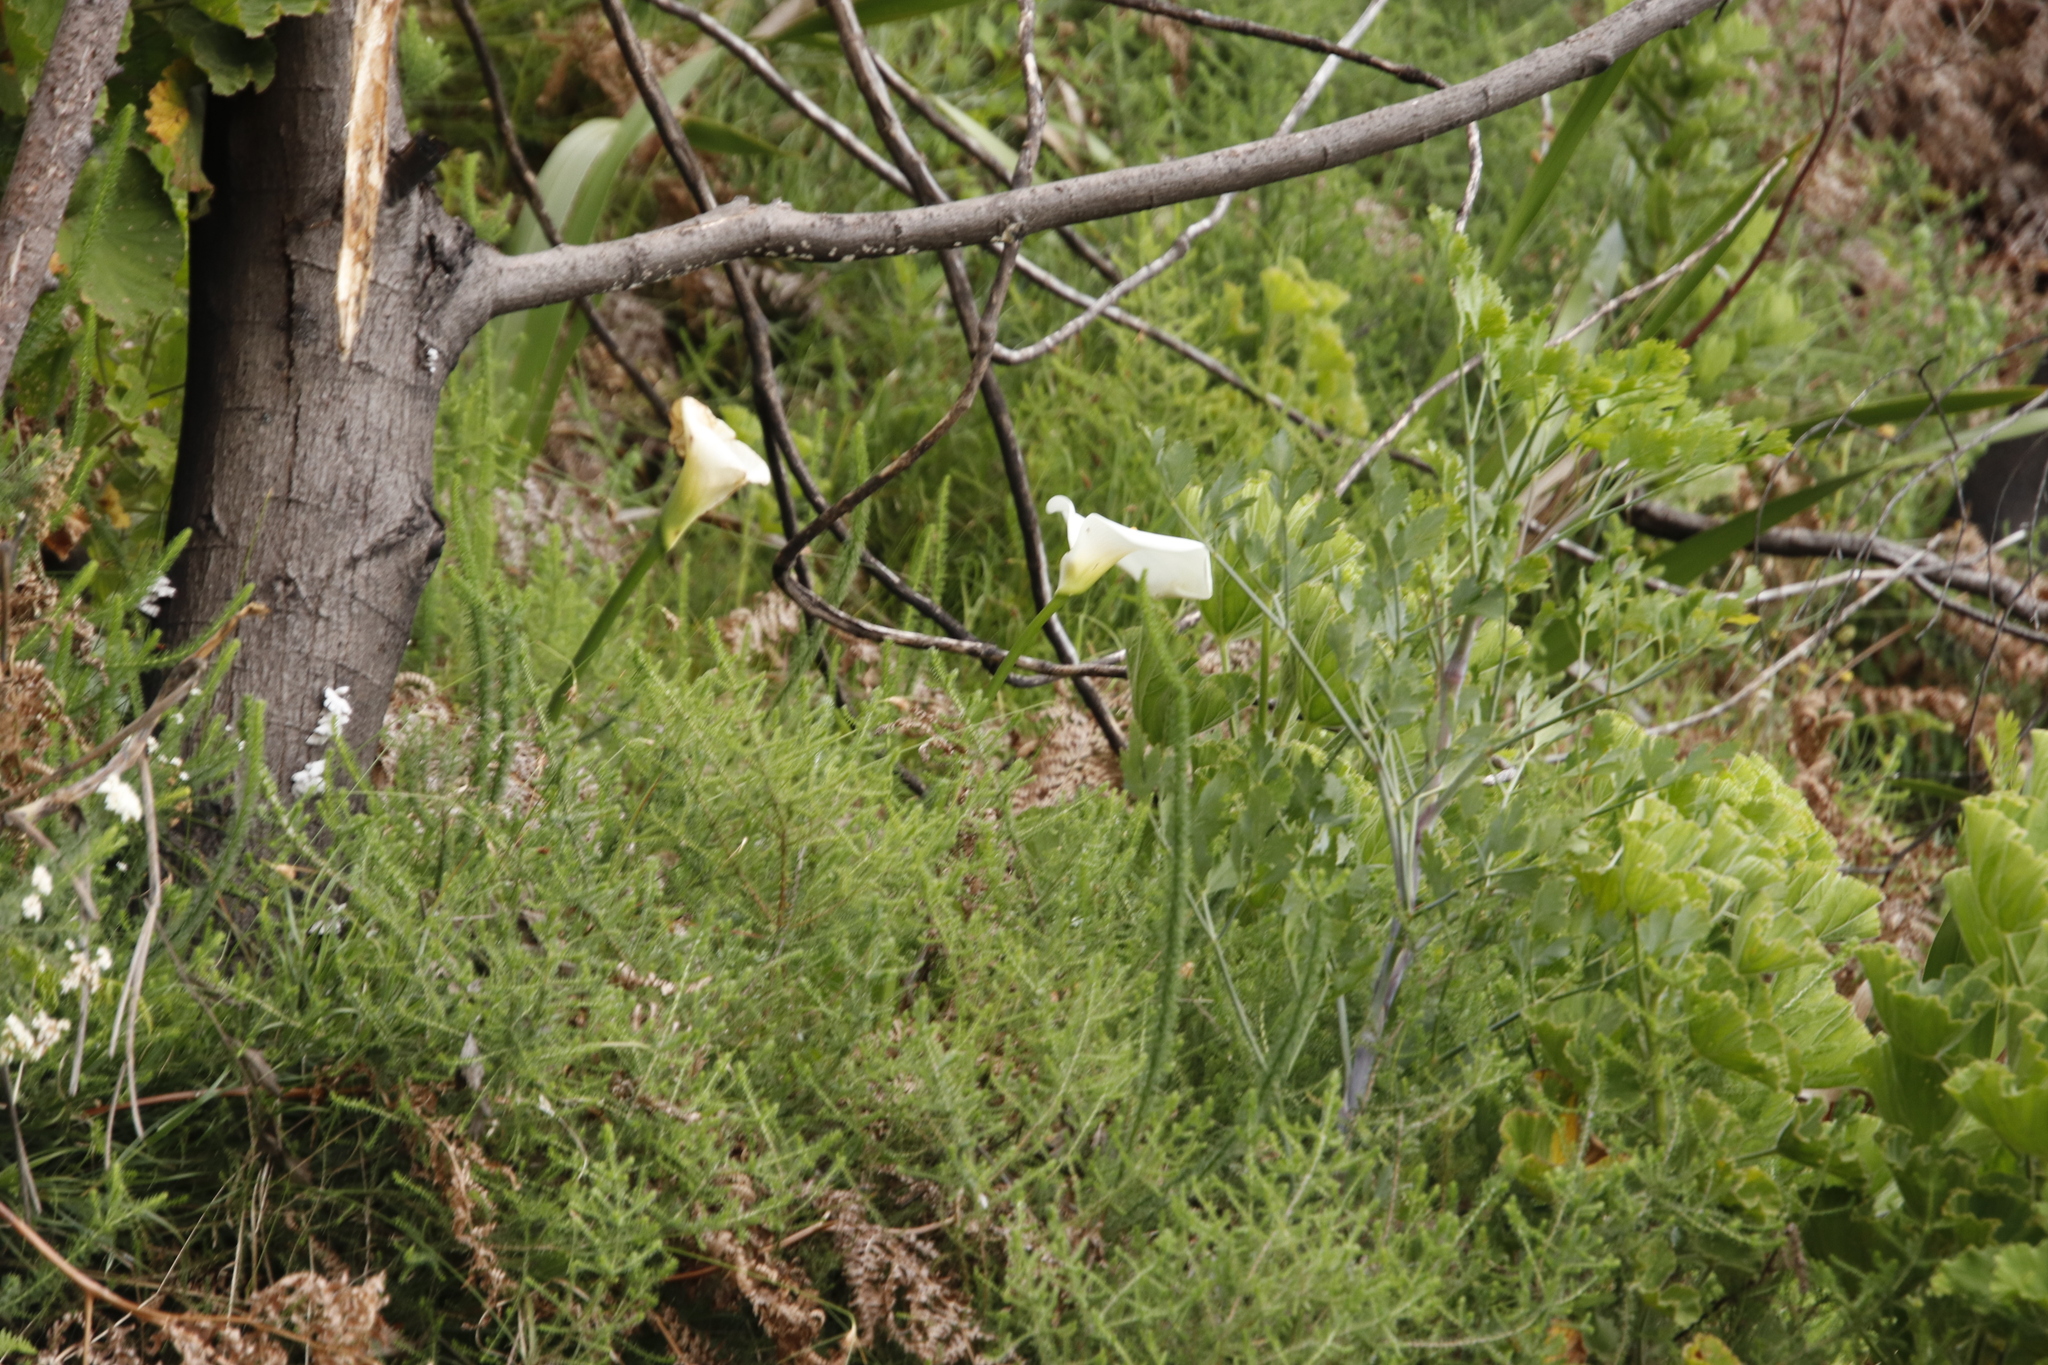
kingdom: Plantae
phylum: Tracheophyta
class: Liliopsida
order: Alismatales
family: Araceae
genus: Zantedeschia
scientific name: Zantedeschia aethiopica
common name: Altar-lily
